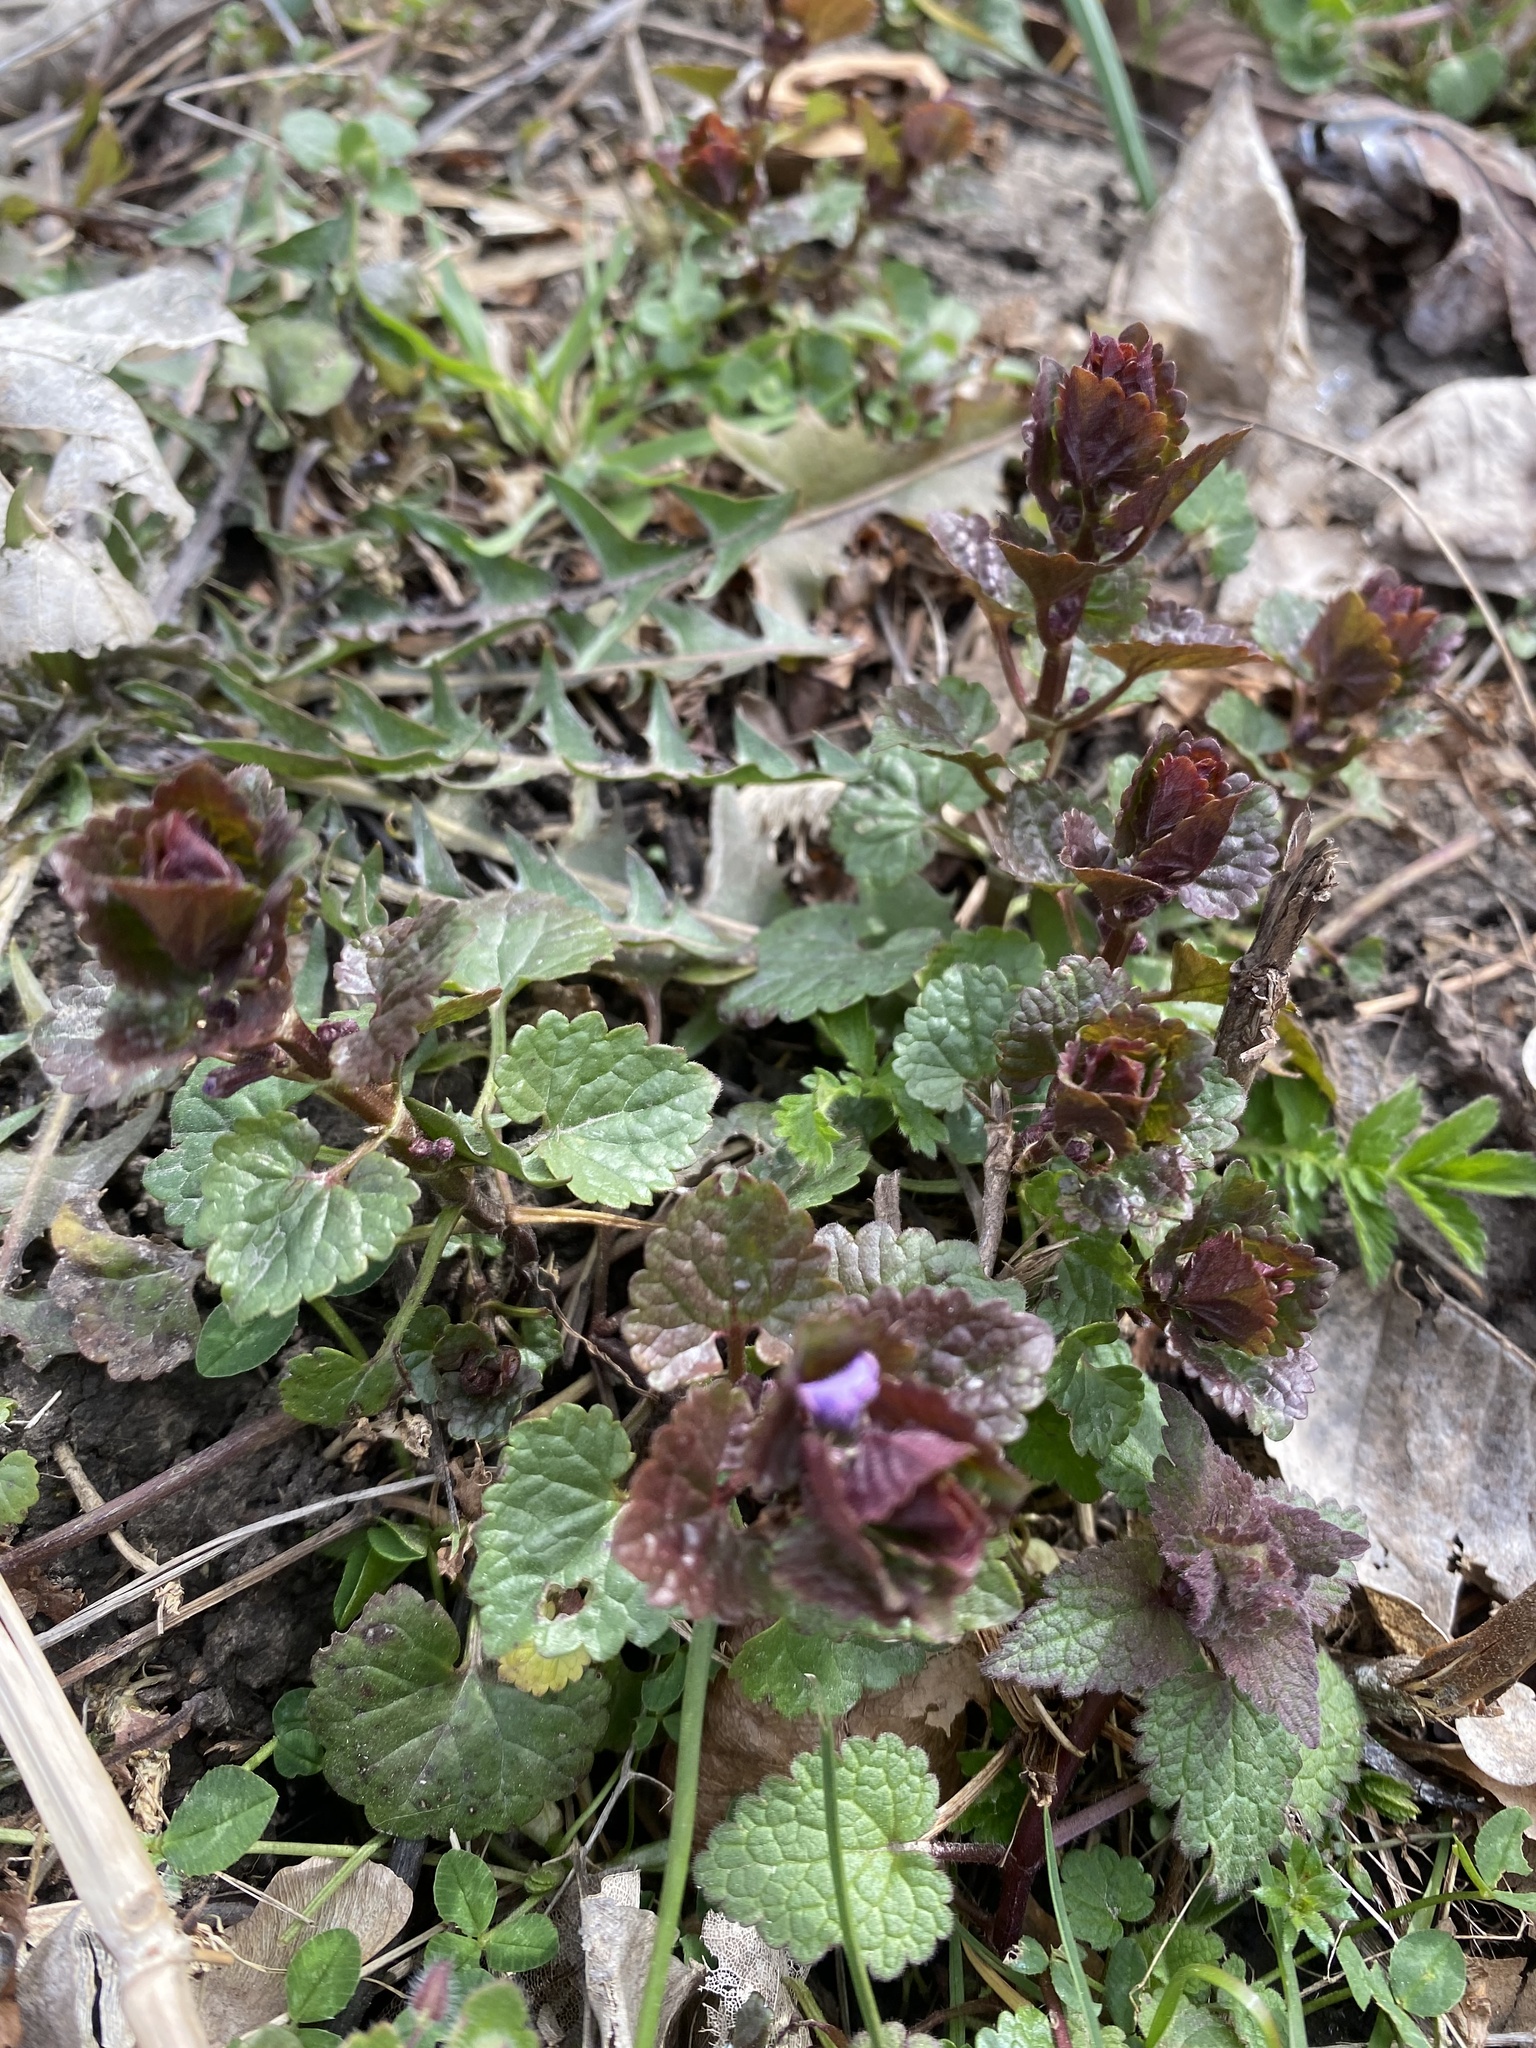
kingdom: Plantae
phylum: Tracheophyta
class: Magnoliopsida
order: Lamiales
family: Lamiaceae
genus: Glechoma
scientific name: Glechoma hederacea
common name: Ground ivy
